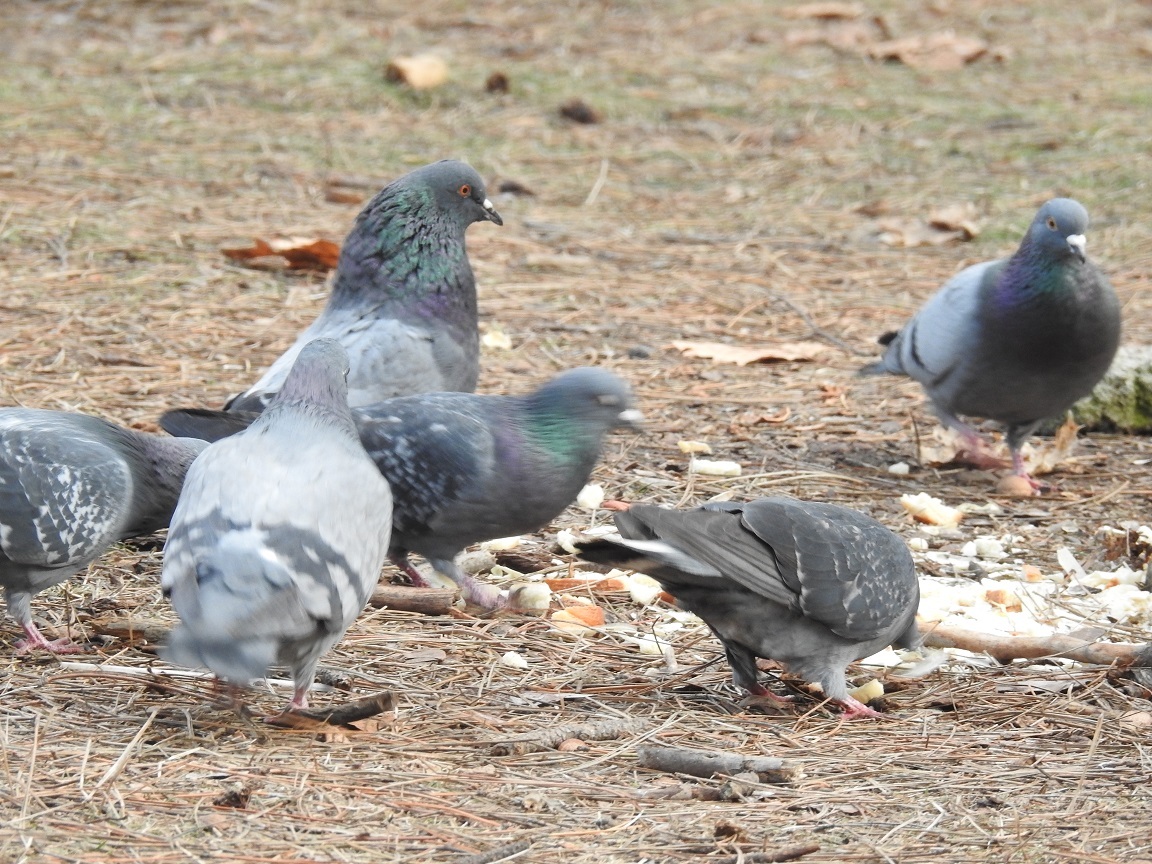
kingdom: Animalia
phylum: Chordata
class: Aves
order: Columbiformes
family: Columbidae
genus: Columba
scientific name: Columba livia
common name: Rock pigeon
